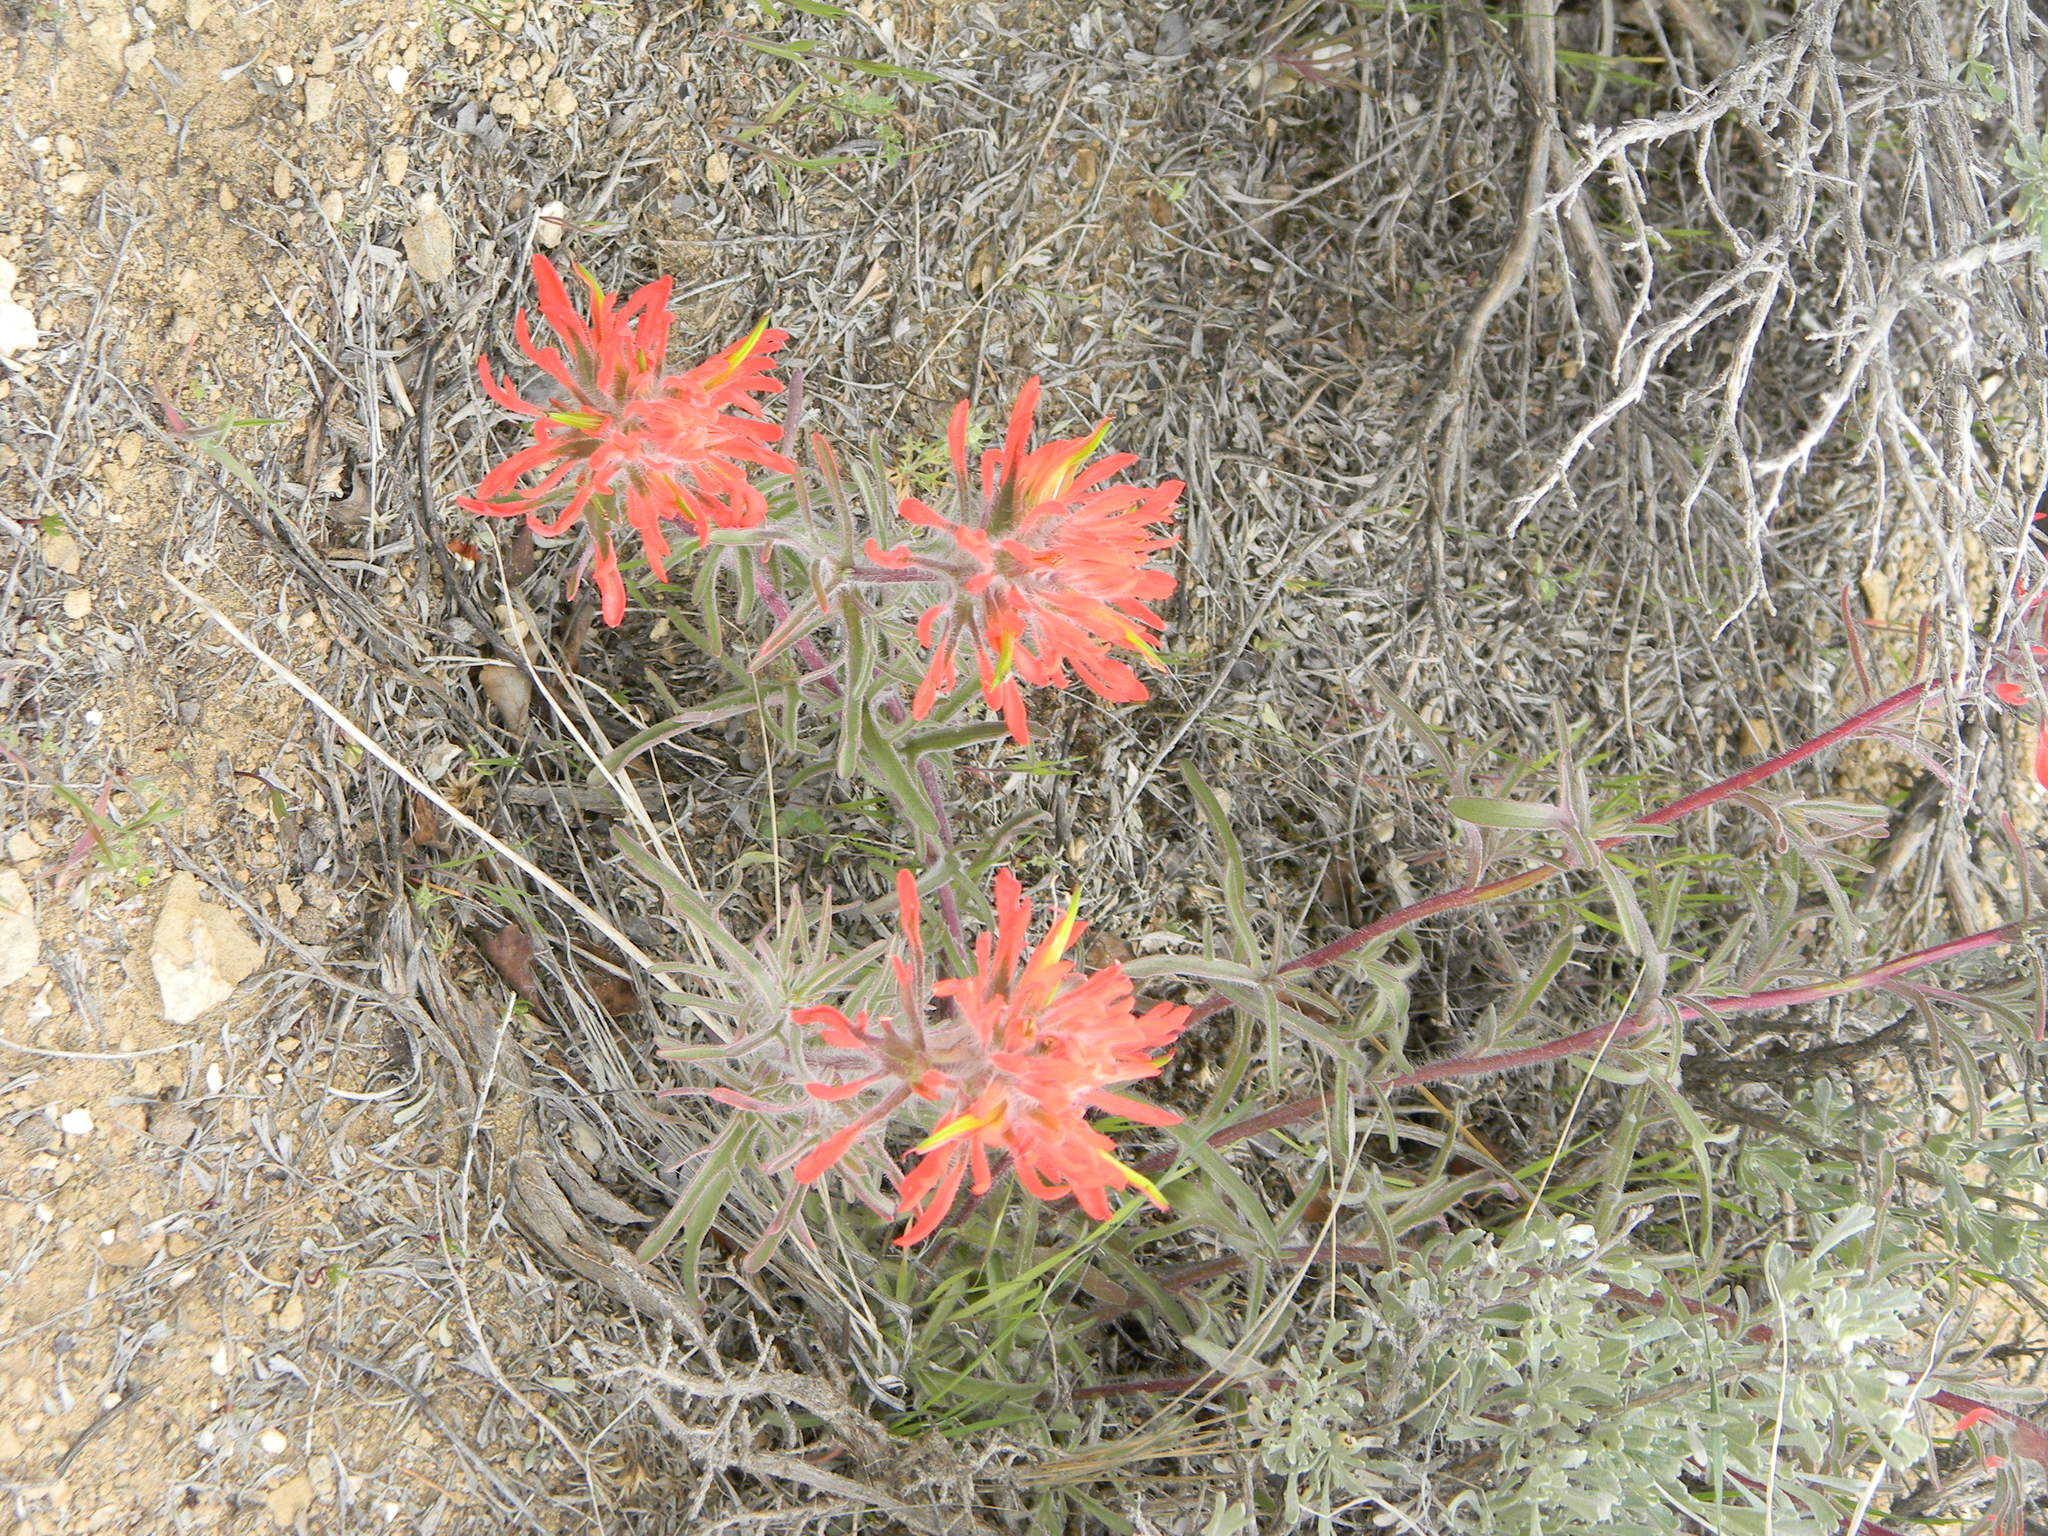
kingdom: Plantae
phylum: Tracheophyta
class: Magnoliopsida
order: Lamiales
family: Orobanchaceae
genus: Castilleja
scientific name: Castilleja chromosa
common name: Desert paintbrush
